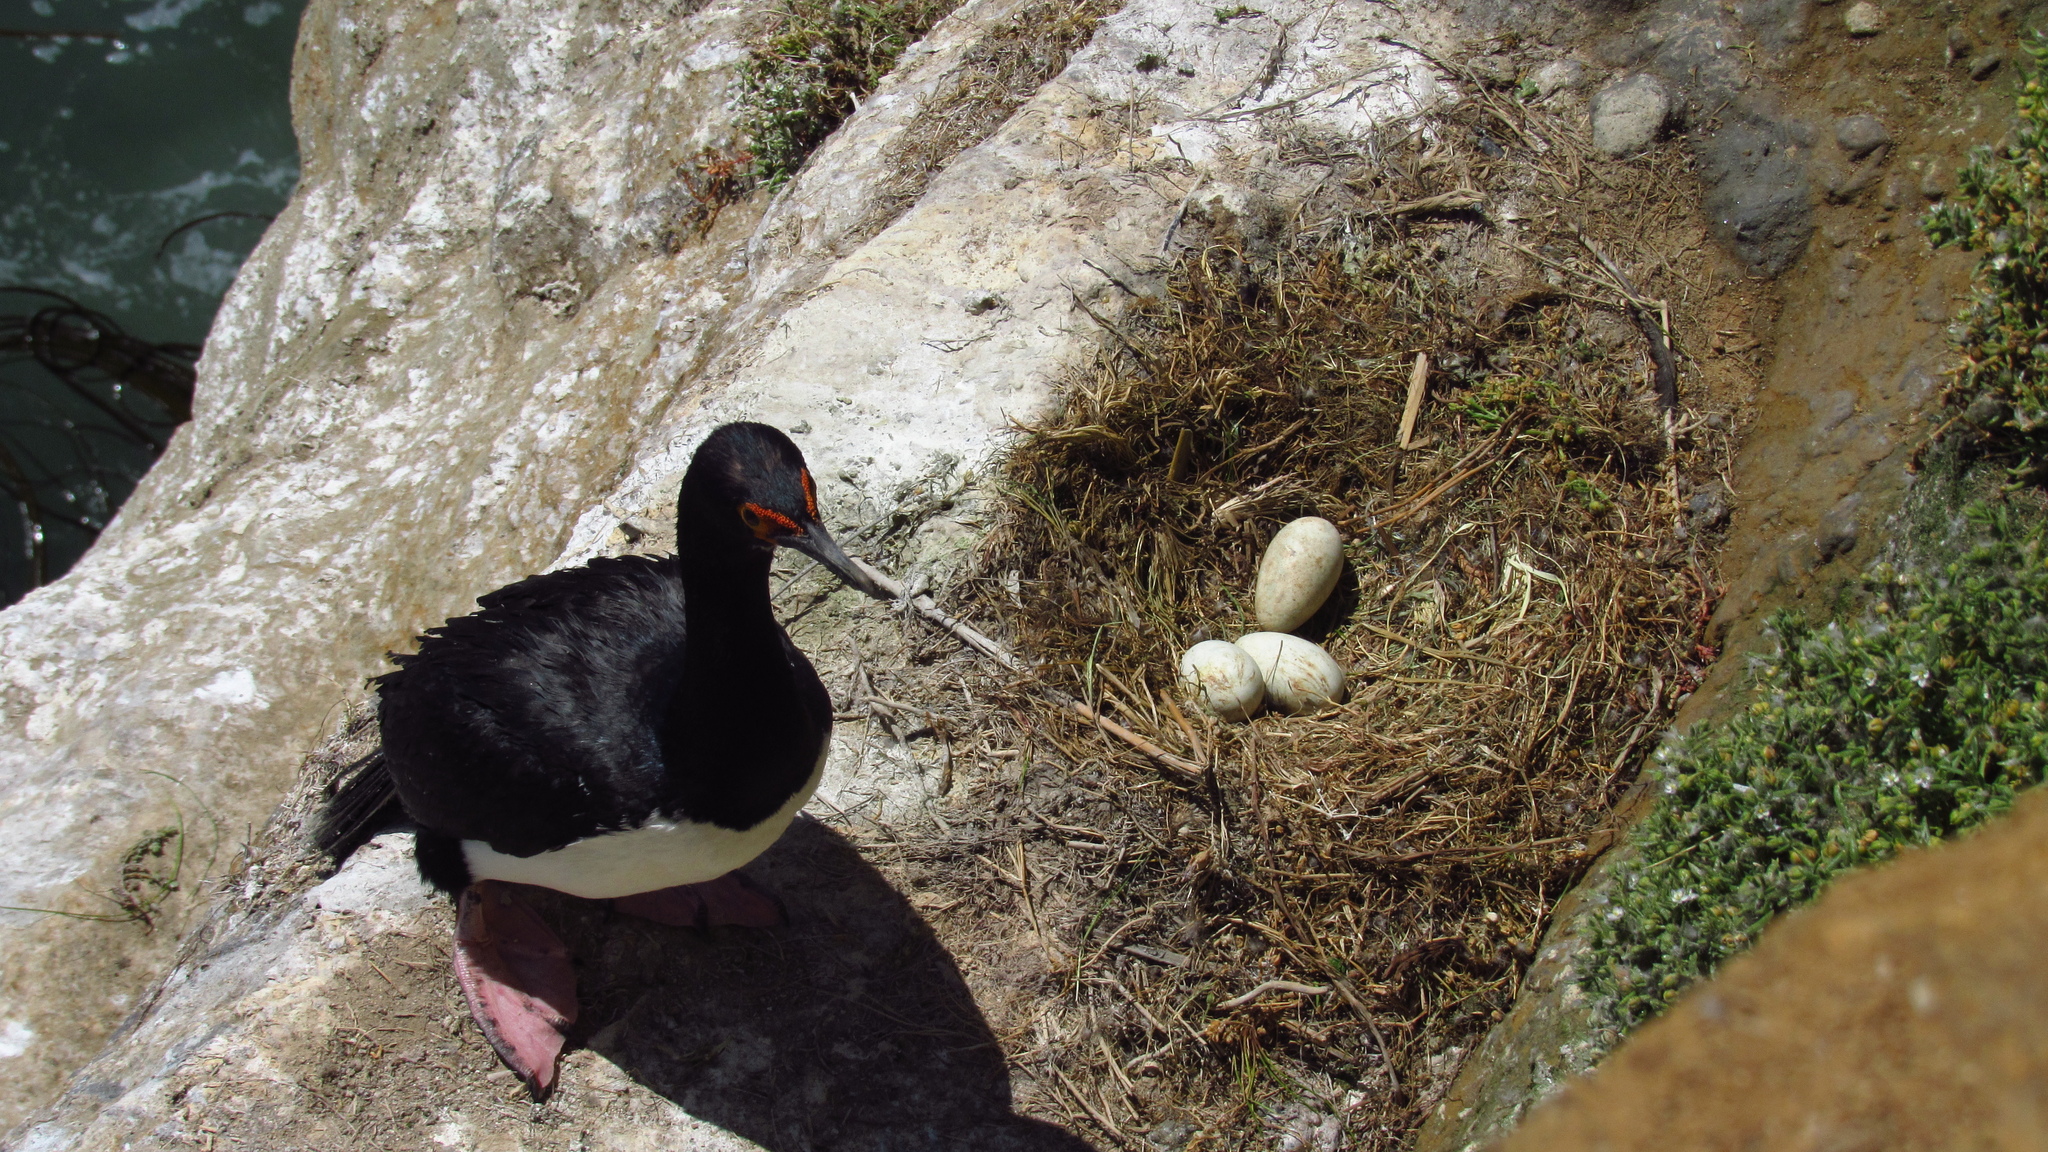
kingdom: Animalia
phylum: Chordata
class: Aves
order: Suliformes
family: Phalacrocoracidae
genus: Phalacrocorax
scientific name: Phalacrocorax magellanicus
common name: Rock shag
